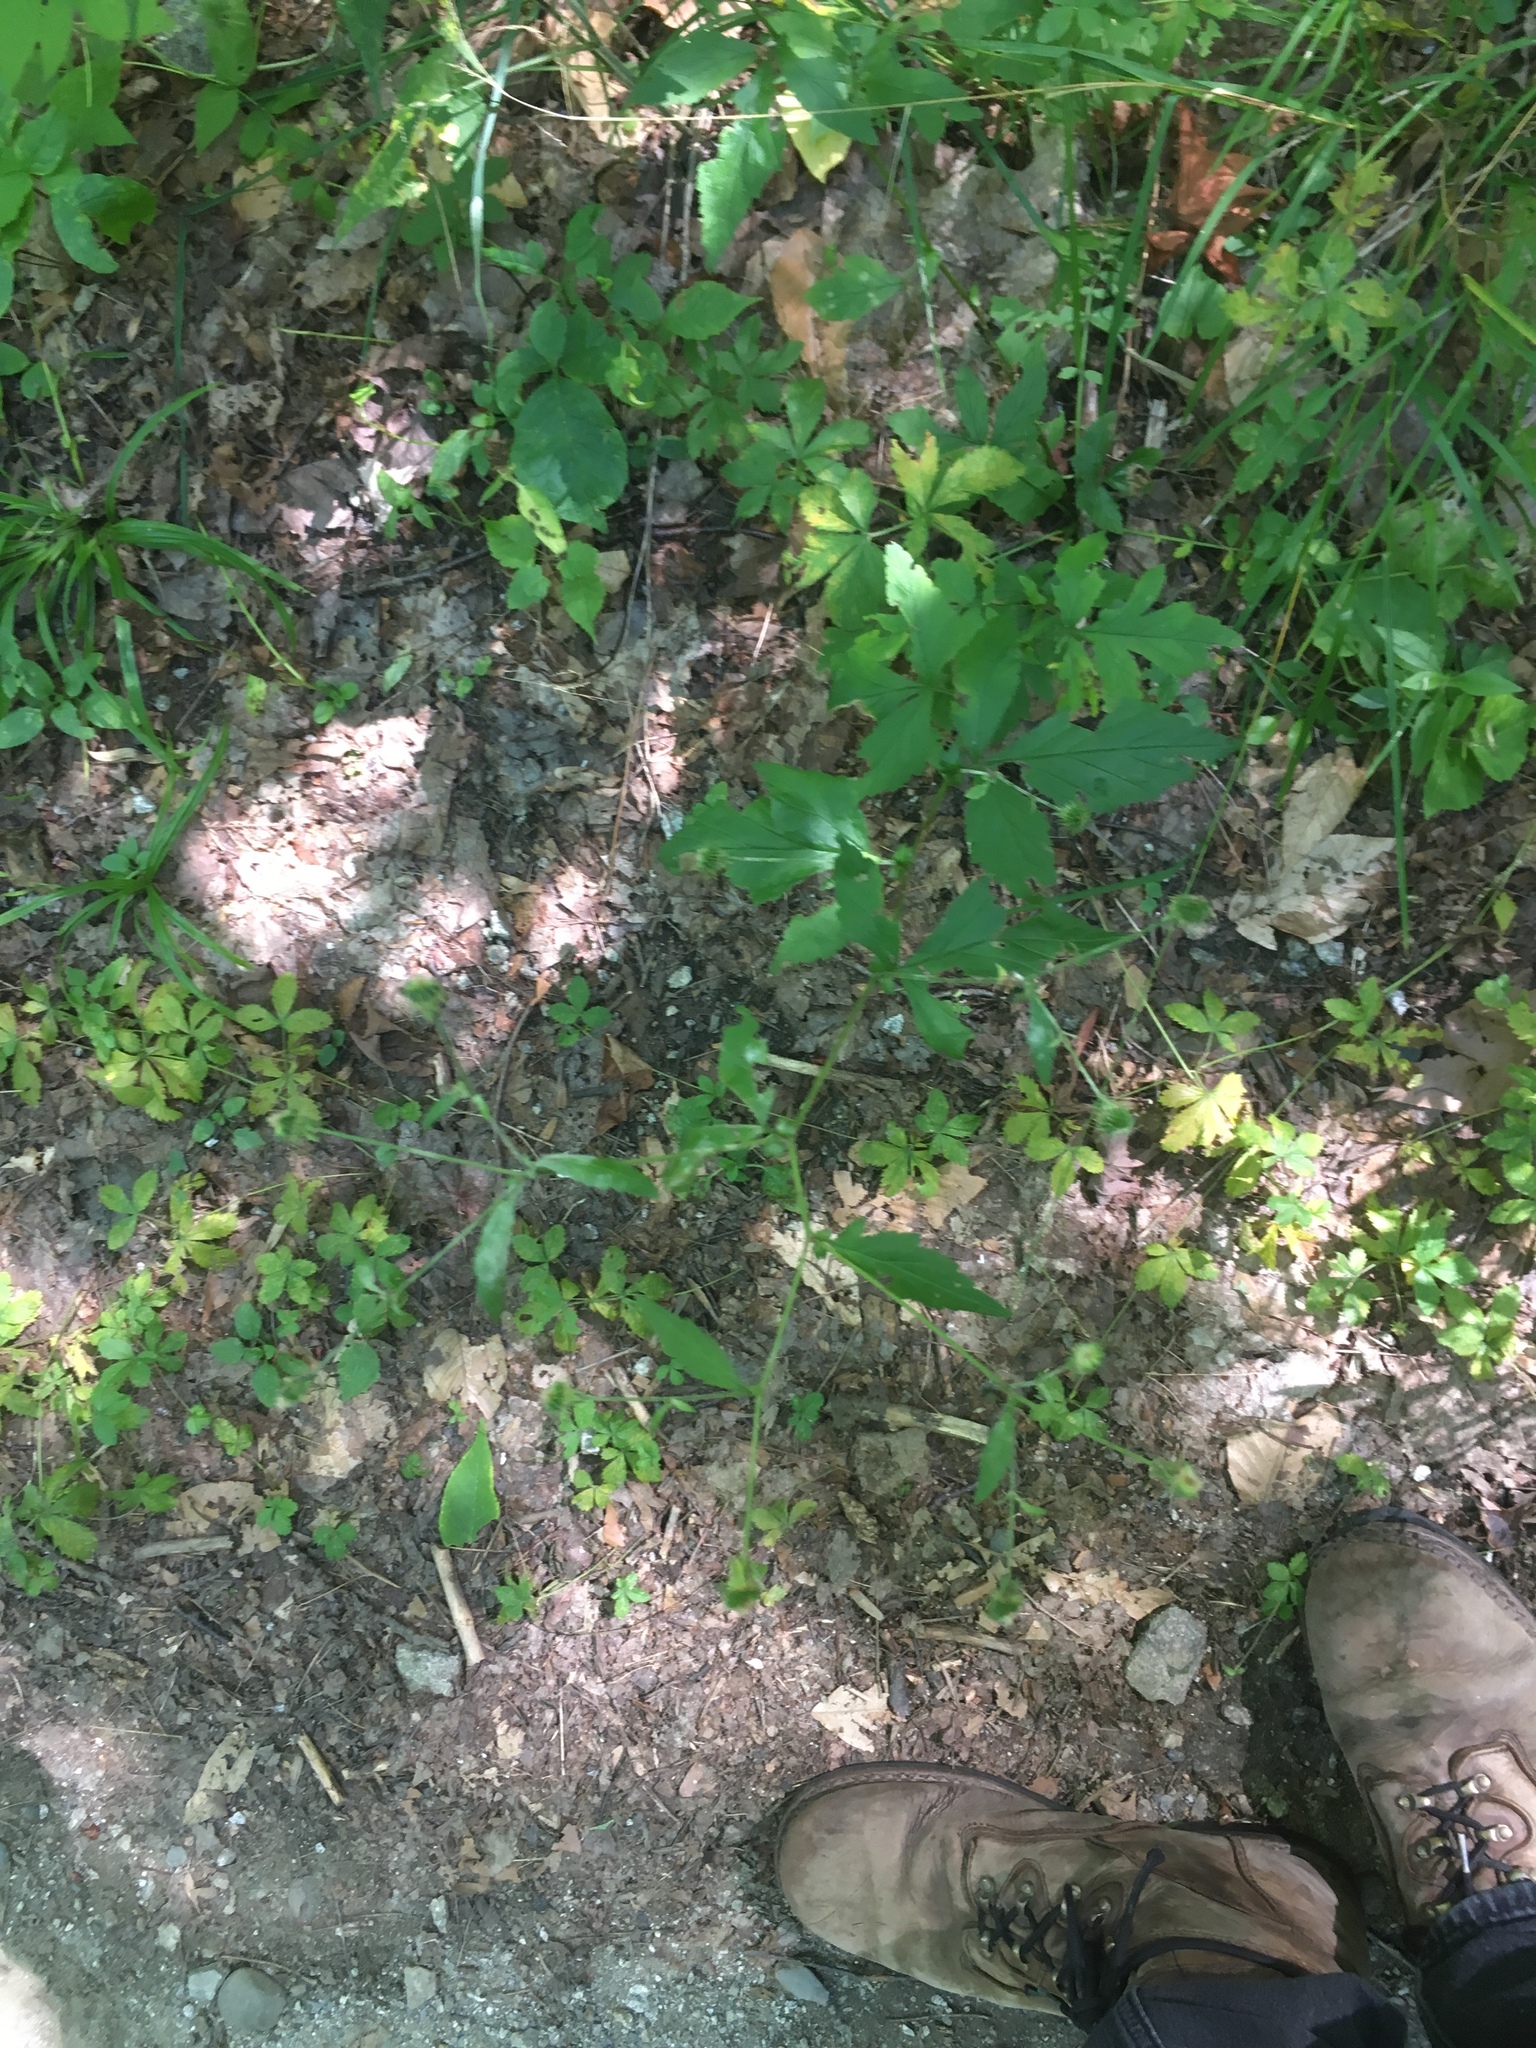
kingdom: Plantae
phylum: Tracheophyta
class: Magnoliopsida
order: Rosales
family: Rosaceae
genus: Geum
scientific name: Geum canadense
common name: White avens
